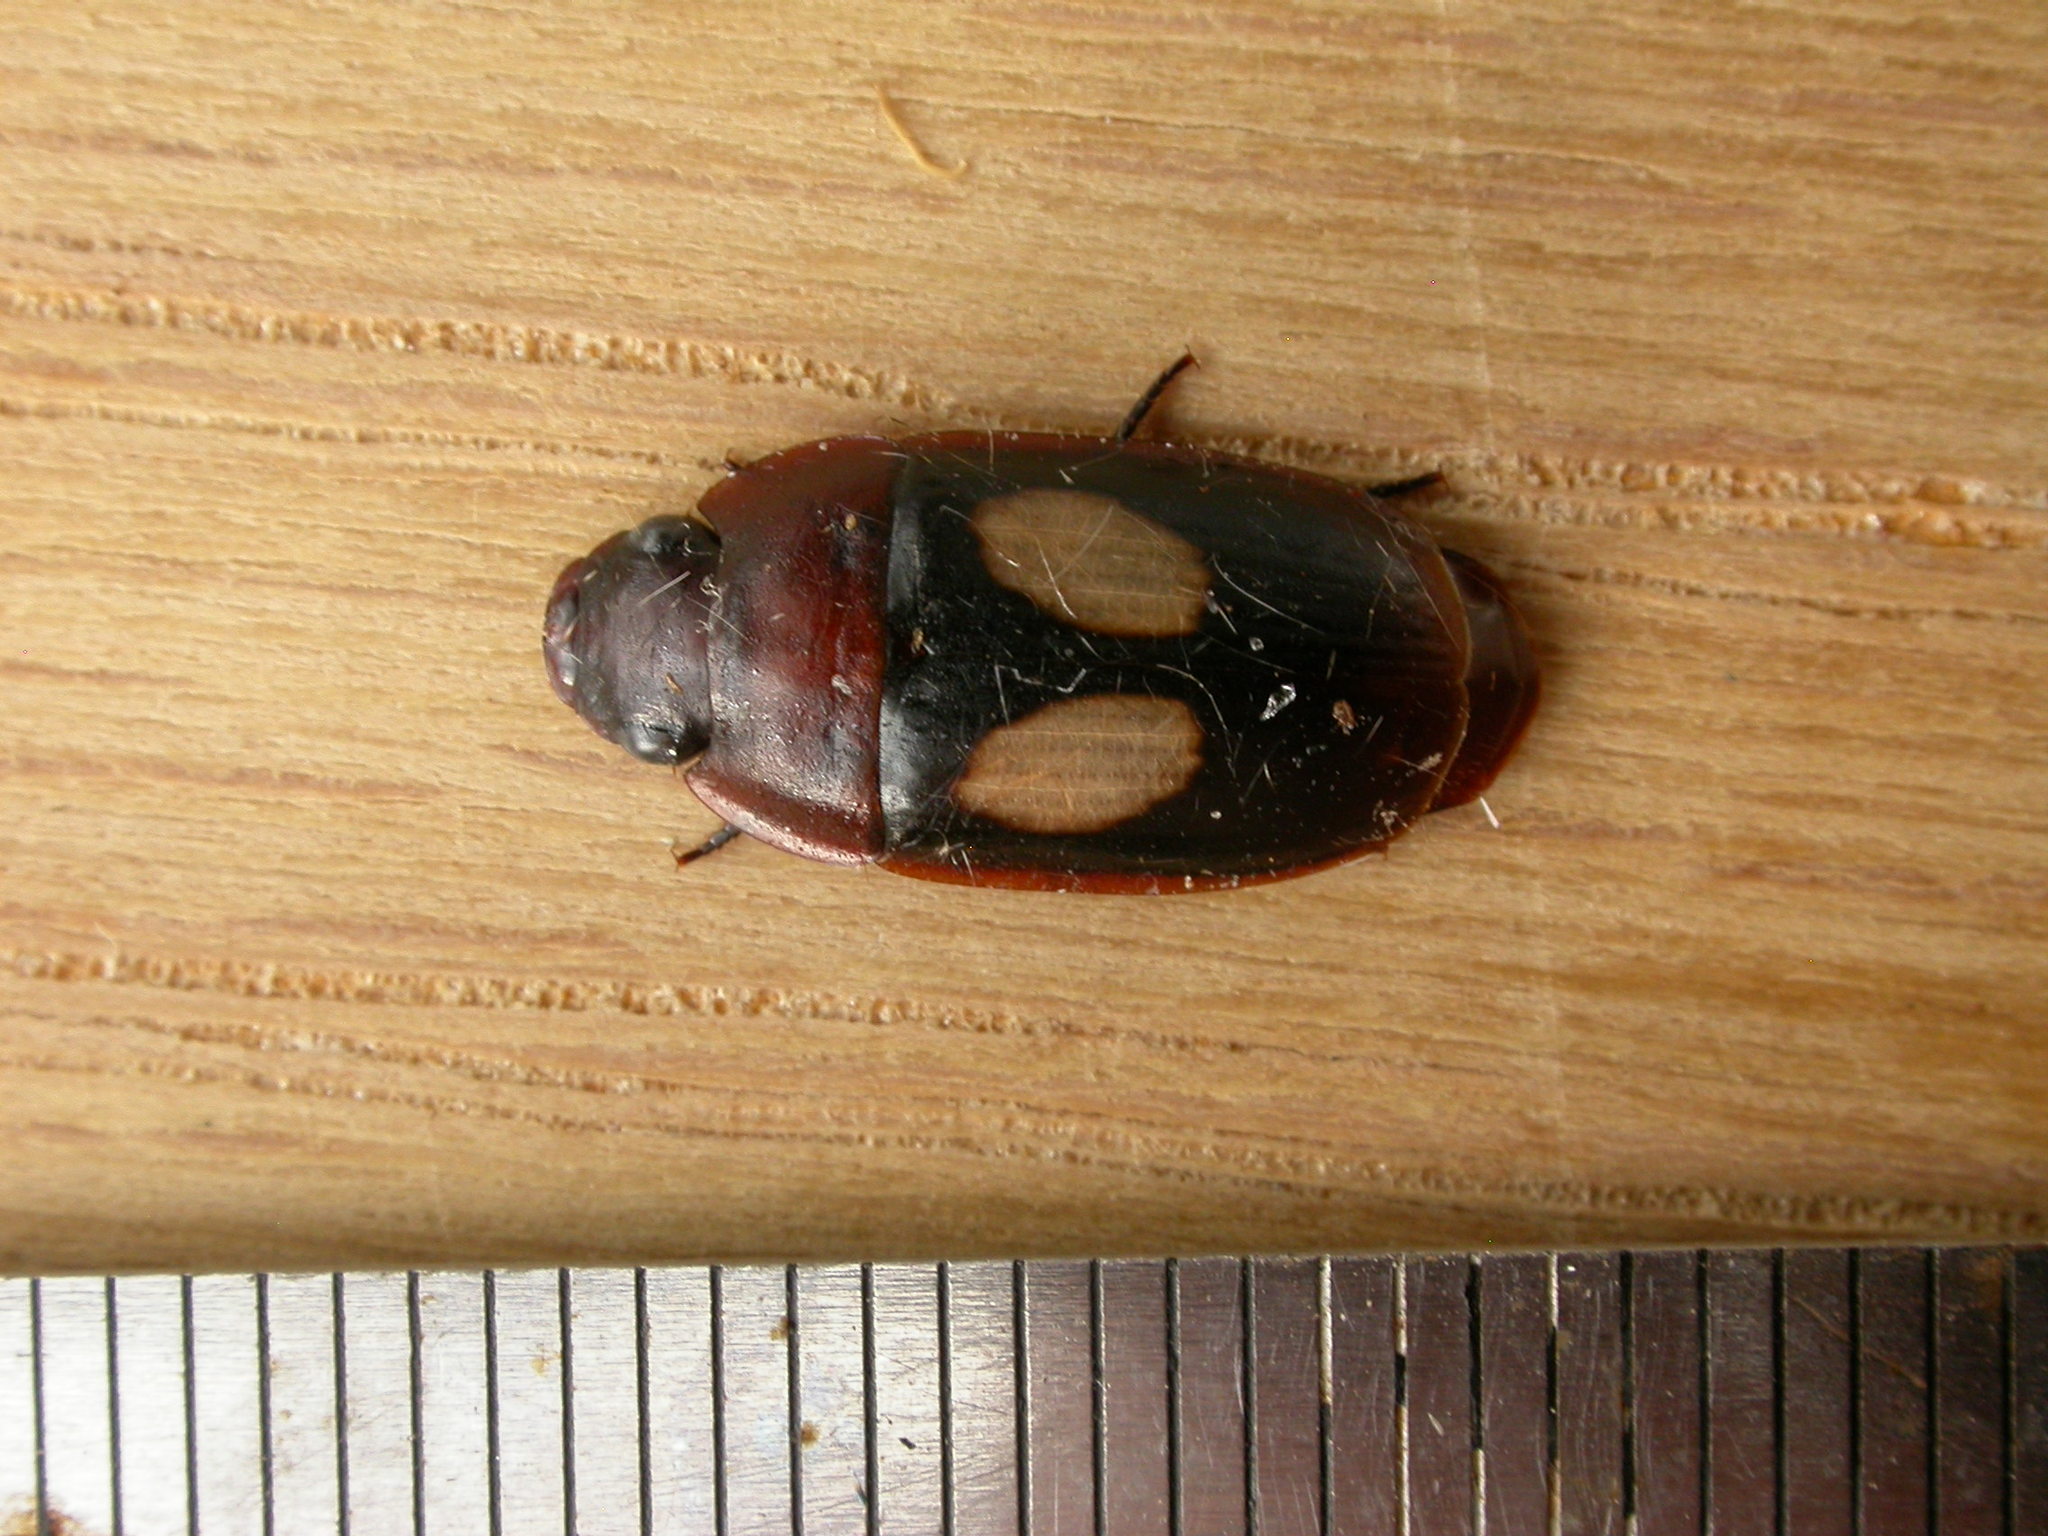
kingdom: Animalia
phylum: Arthropoda
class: Insecta
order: Coleoptera
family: Carabidae
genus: Sphallomorpha
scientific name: Sphallomorpha ruficollis
